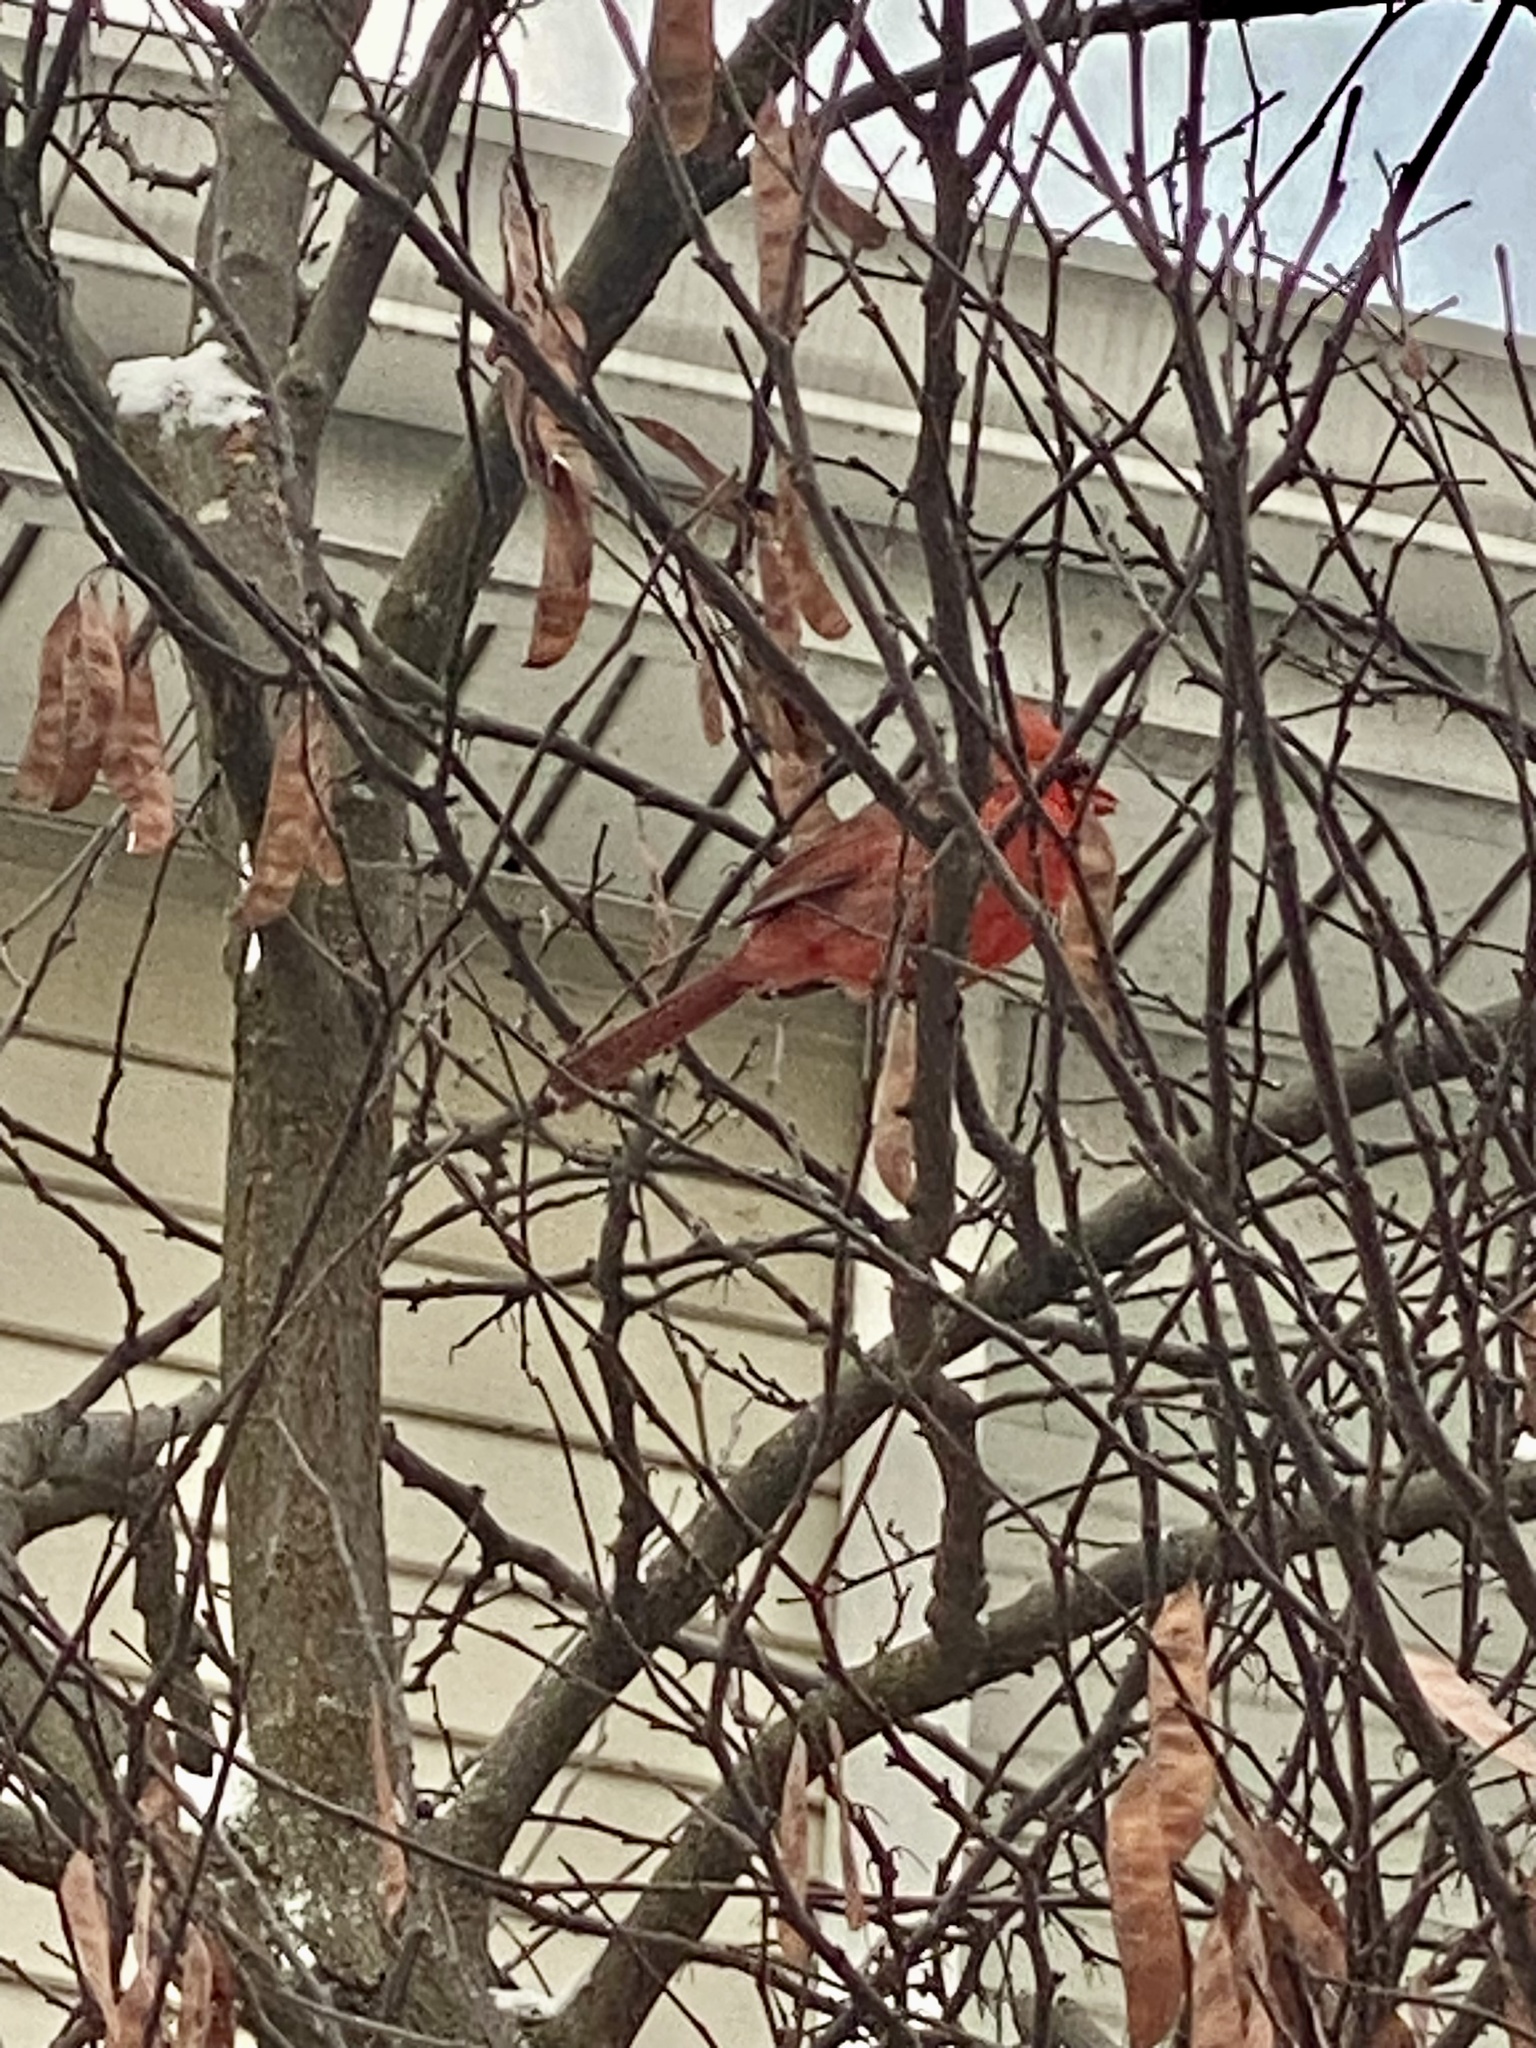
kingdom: Animalia
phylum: Chordata
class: Aves
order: Passeriformes
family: Cardinalidae
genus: Cardinalis
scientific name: Cardinalis cardinalis
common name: Northern cardinal
